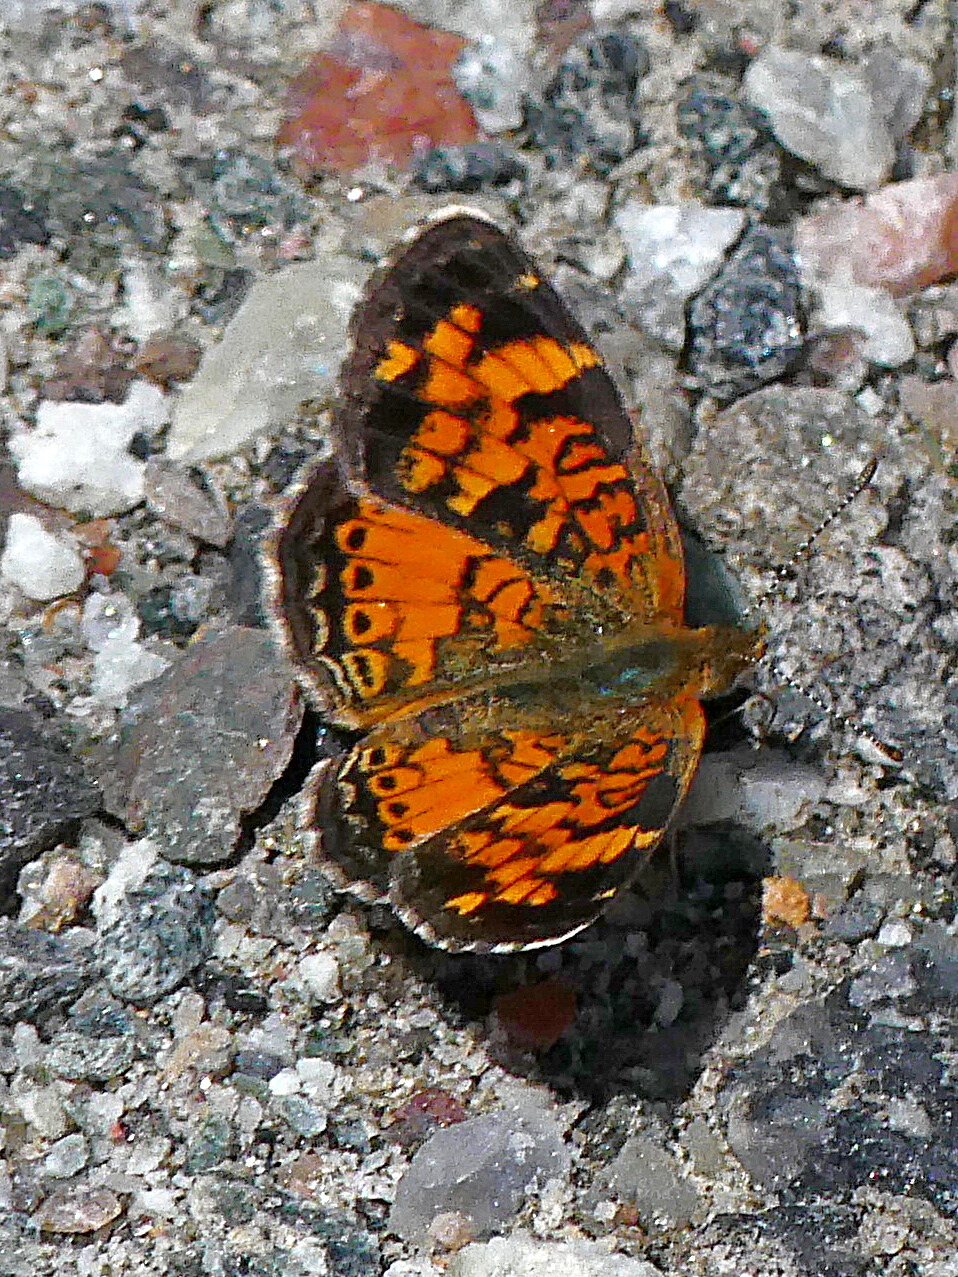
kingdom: Animalia
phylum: Arthropoda
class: Insecta
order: Lepidoptera
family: Nymphalidae
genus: Phyciodes
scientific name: Phyciodes tharos
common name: Pearl crescent
